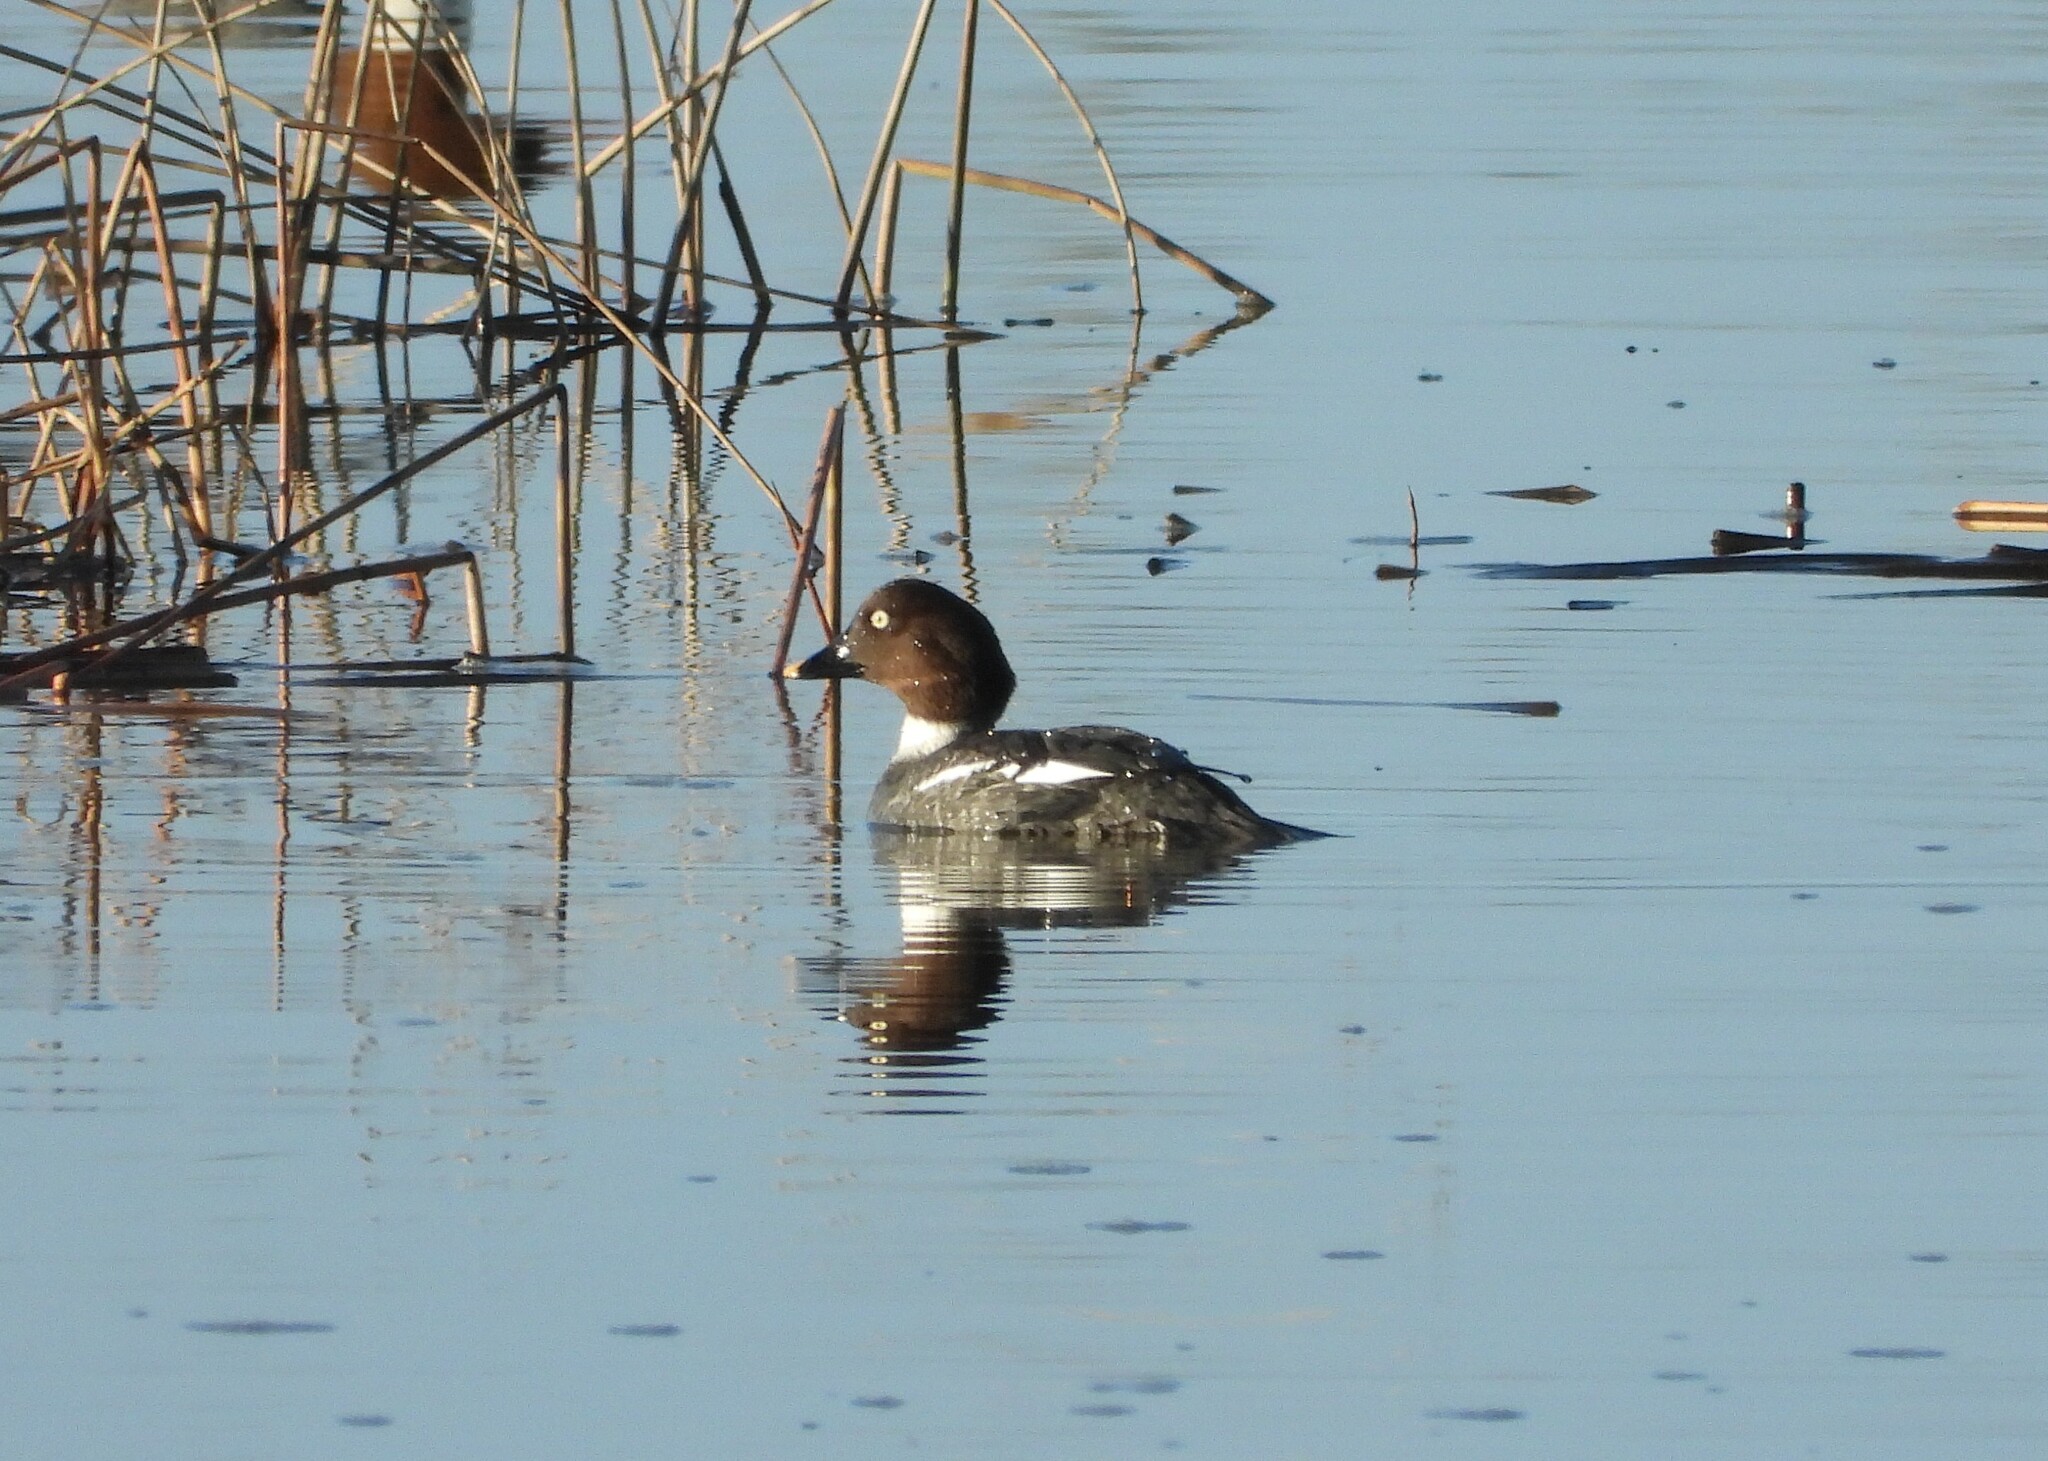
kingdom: Animalia
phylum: Chordata
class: Aves
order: Anseriformes
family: Anatidae
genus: Bucephala
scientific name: Bucephala clangula
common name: Common goldeneye
